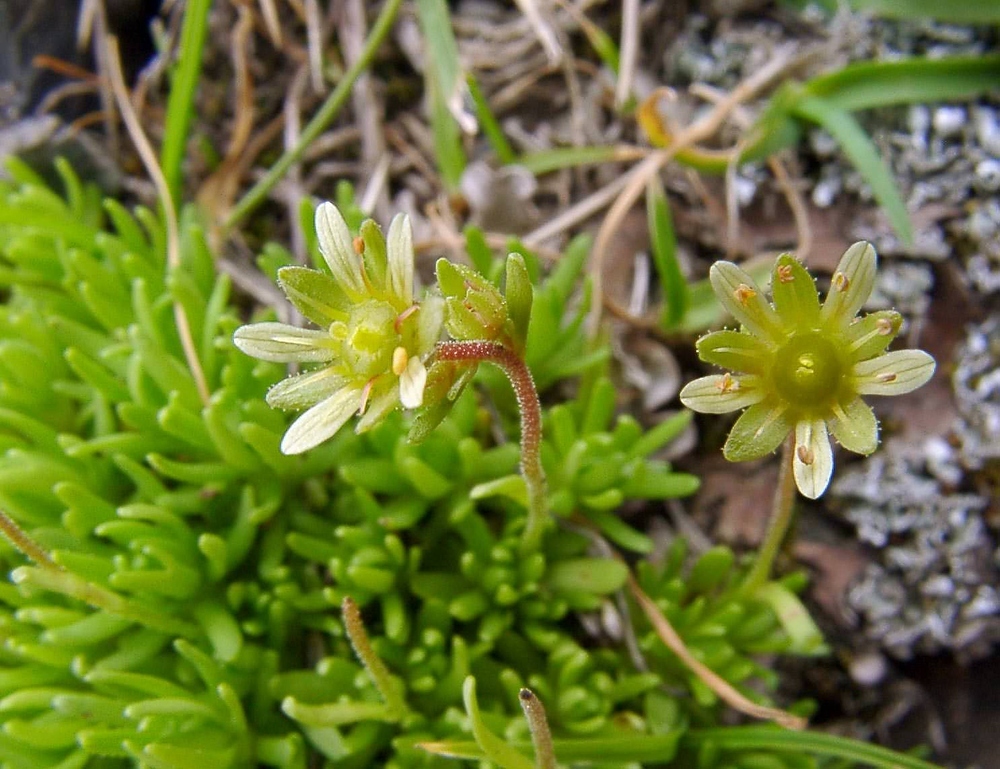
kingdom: Plantae
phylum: Tracheophyta
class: Magnoliopsida
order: Saxifragales
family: Saxifragaceae
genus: Saxifraga
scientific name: Saxifraga moschata
